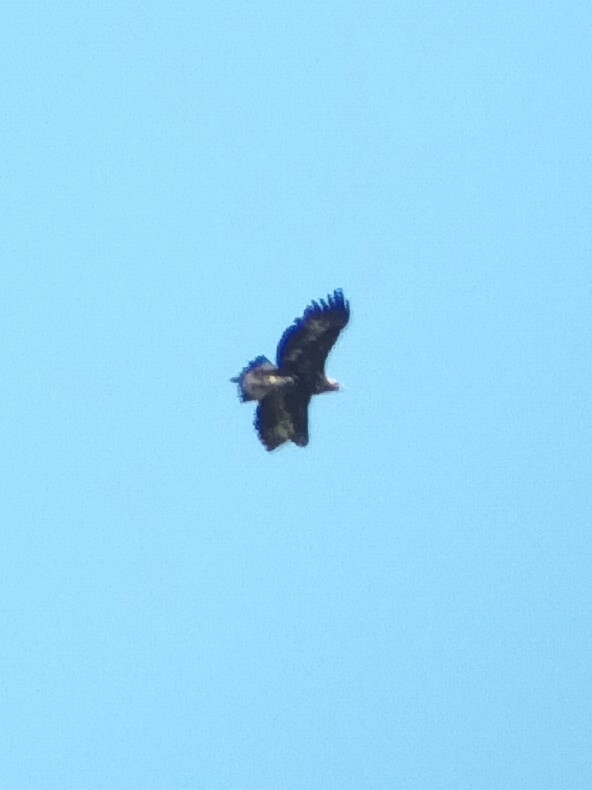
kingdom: Animalia
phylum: Chordata
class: Aves
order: Accipitriformes
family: Accipitridae
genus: Aquila
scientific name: Aquila chrysaetos
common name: Golden eagle
